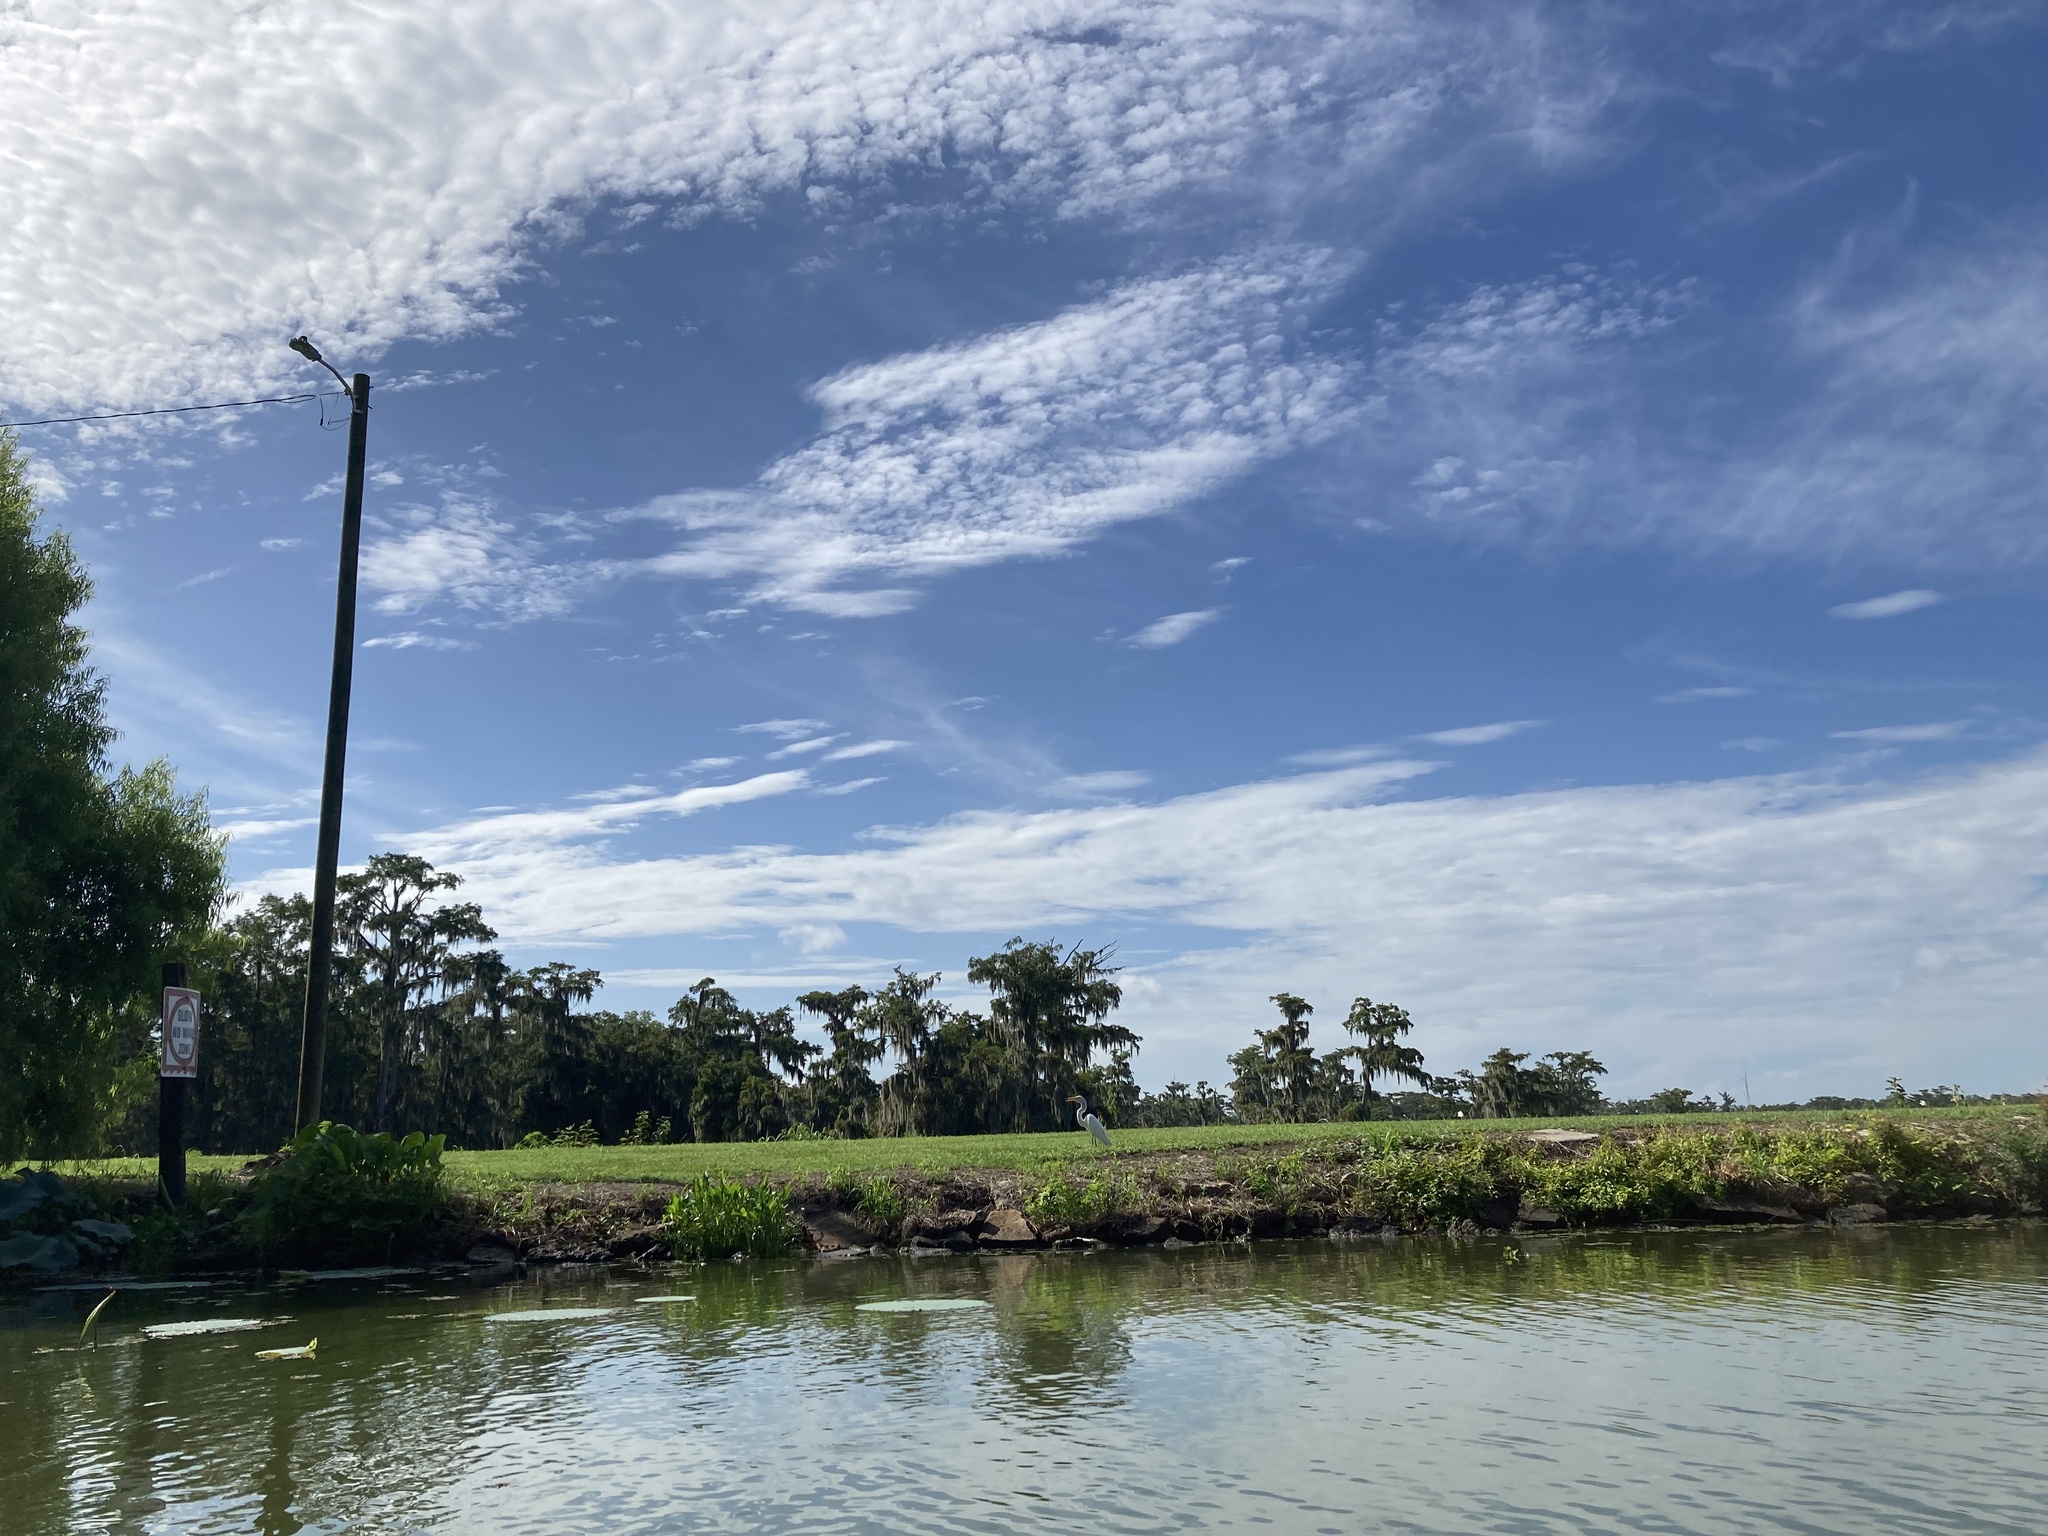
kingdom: Animalia
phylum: Chordata
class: Aves
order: Pelecaniformes
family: Ardeidae
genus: Ardea
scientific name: Ardea alba
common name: Great egret
